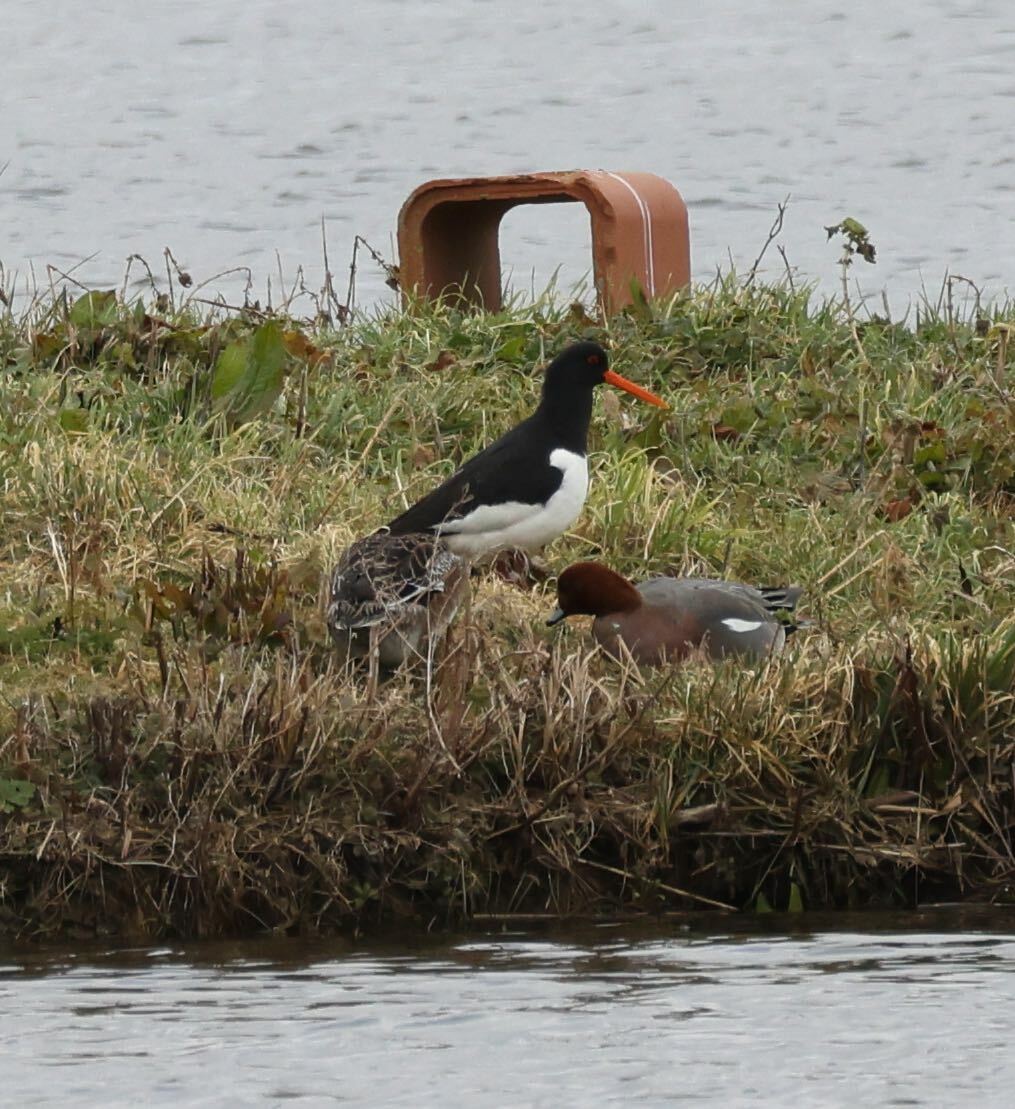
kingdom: Animalia
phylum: Chordata
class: Aves
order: Charadriiformes
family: Haematopodidae
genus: Haematopus
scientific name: Haematopus ostralegus
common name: Eurasian oystercatcher
